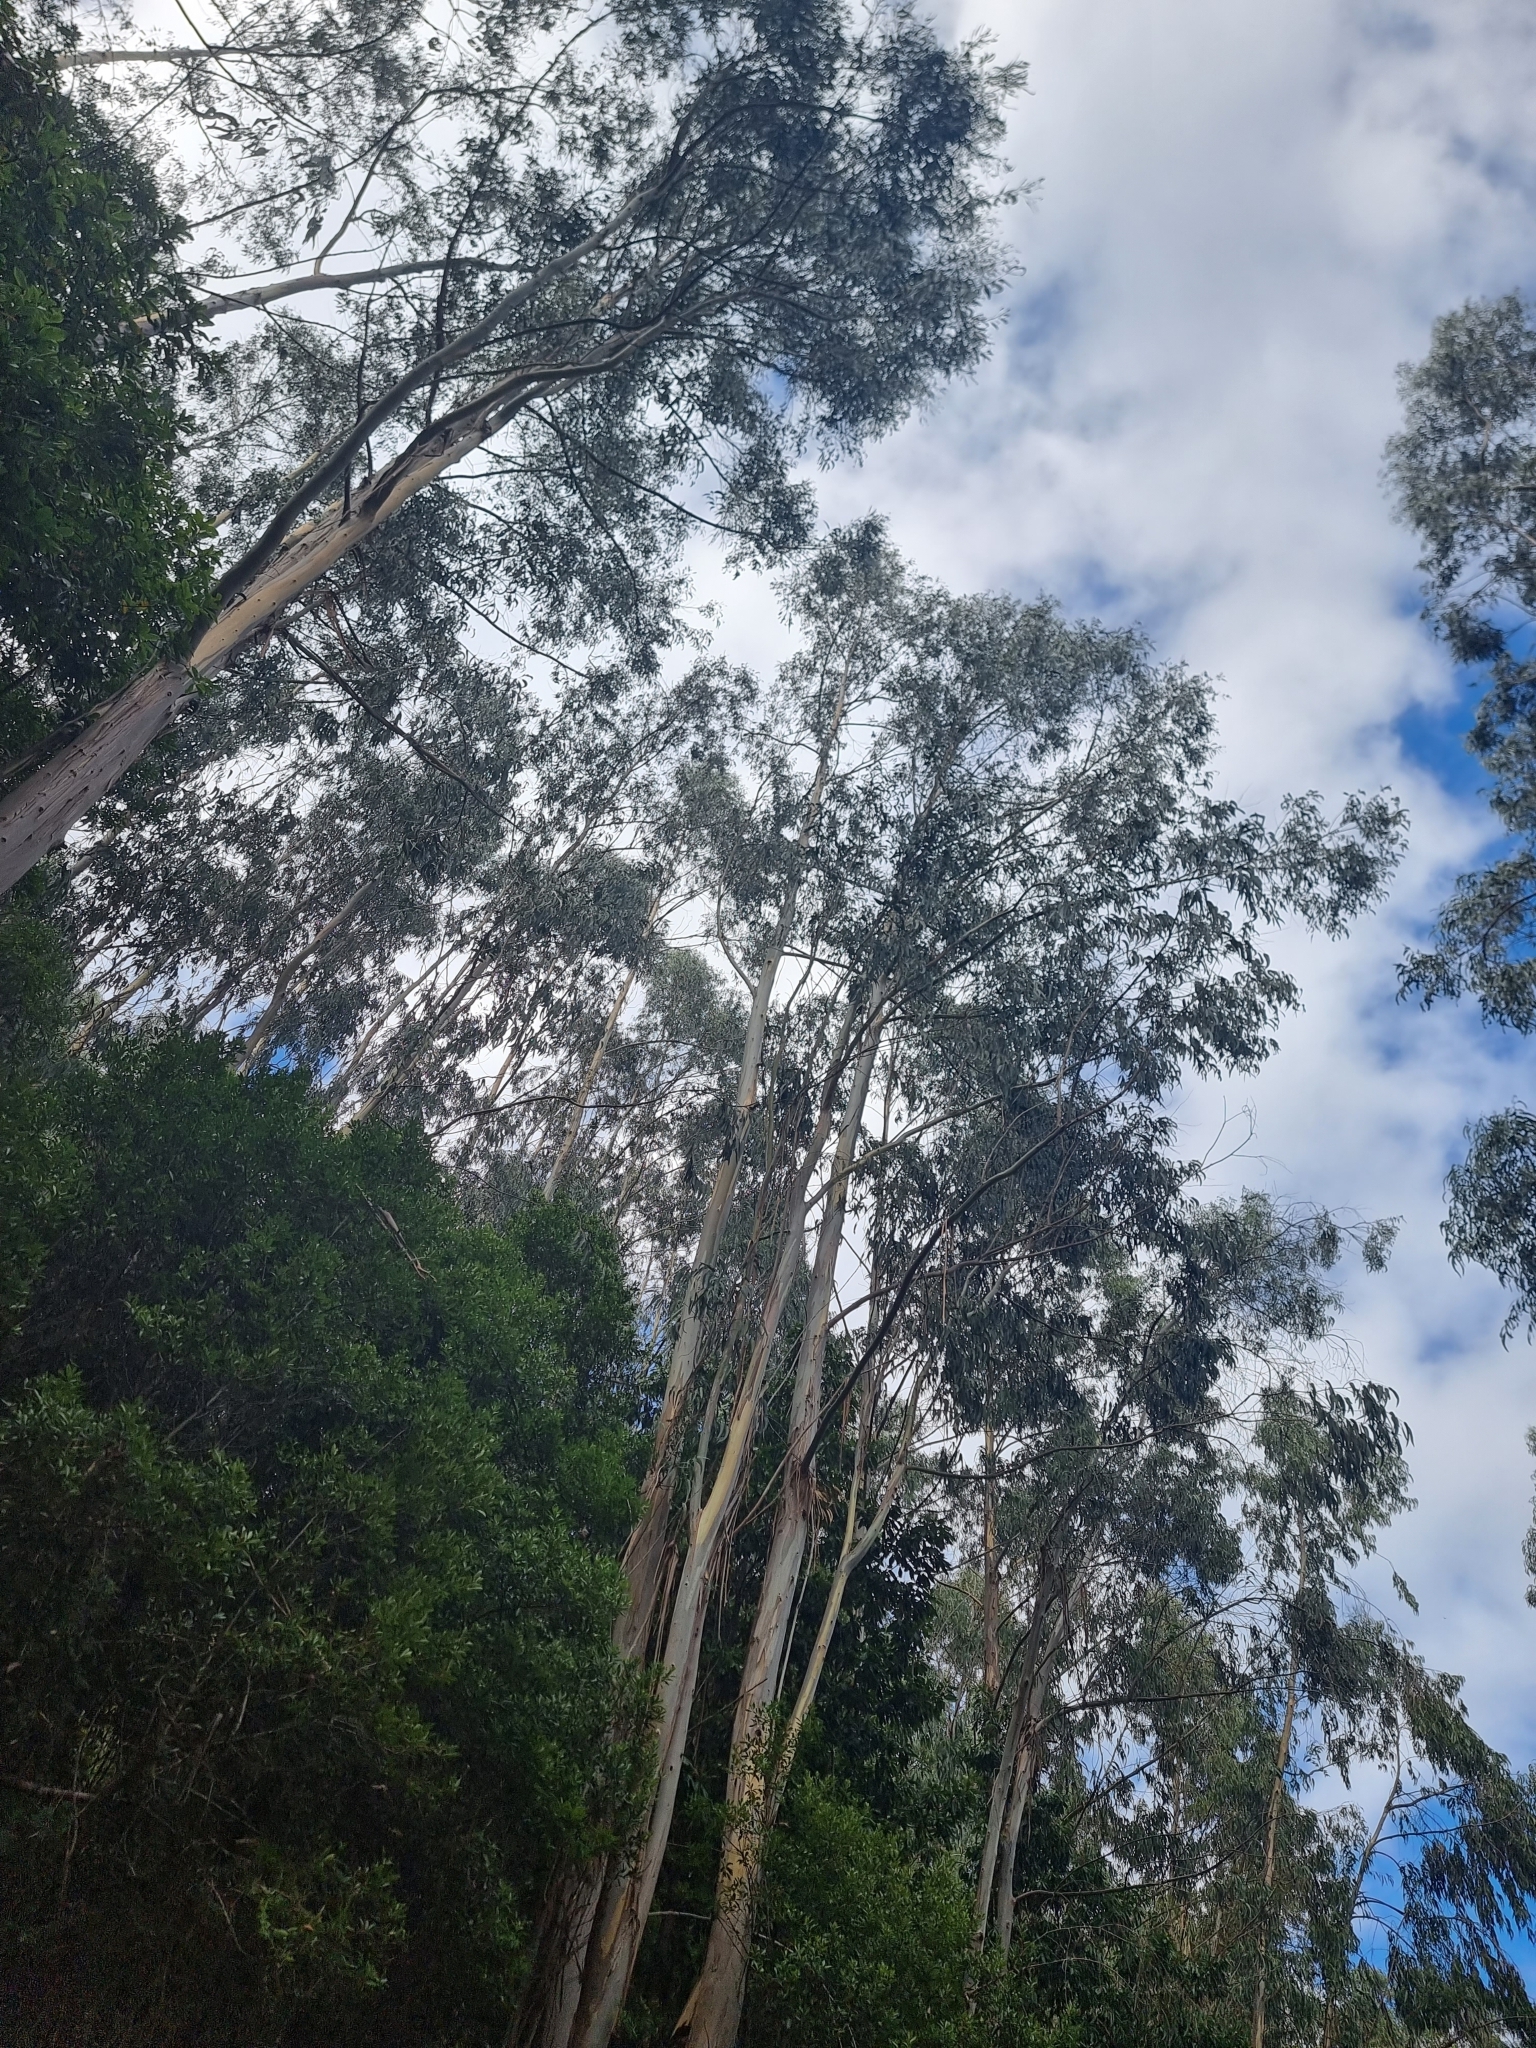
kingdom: Plantae
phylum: Tracheophyta
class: Magnoliopsida
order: Myrtales
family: Myrtaceae
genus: Eucalyptus
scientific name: Eucalyptus globulus
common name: Southern blue-gum
